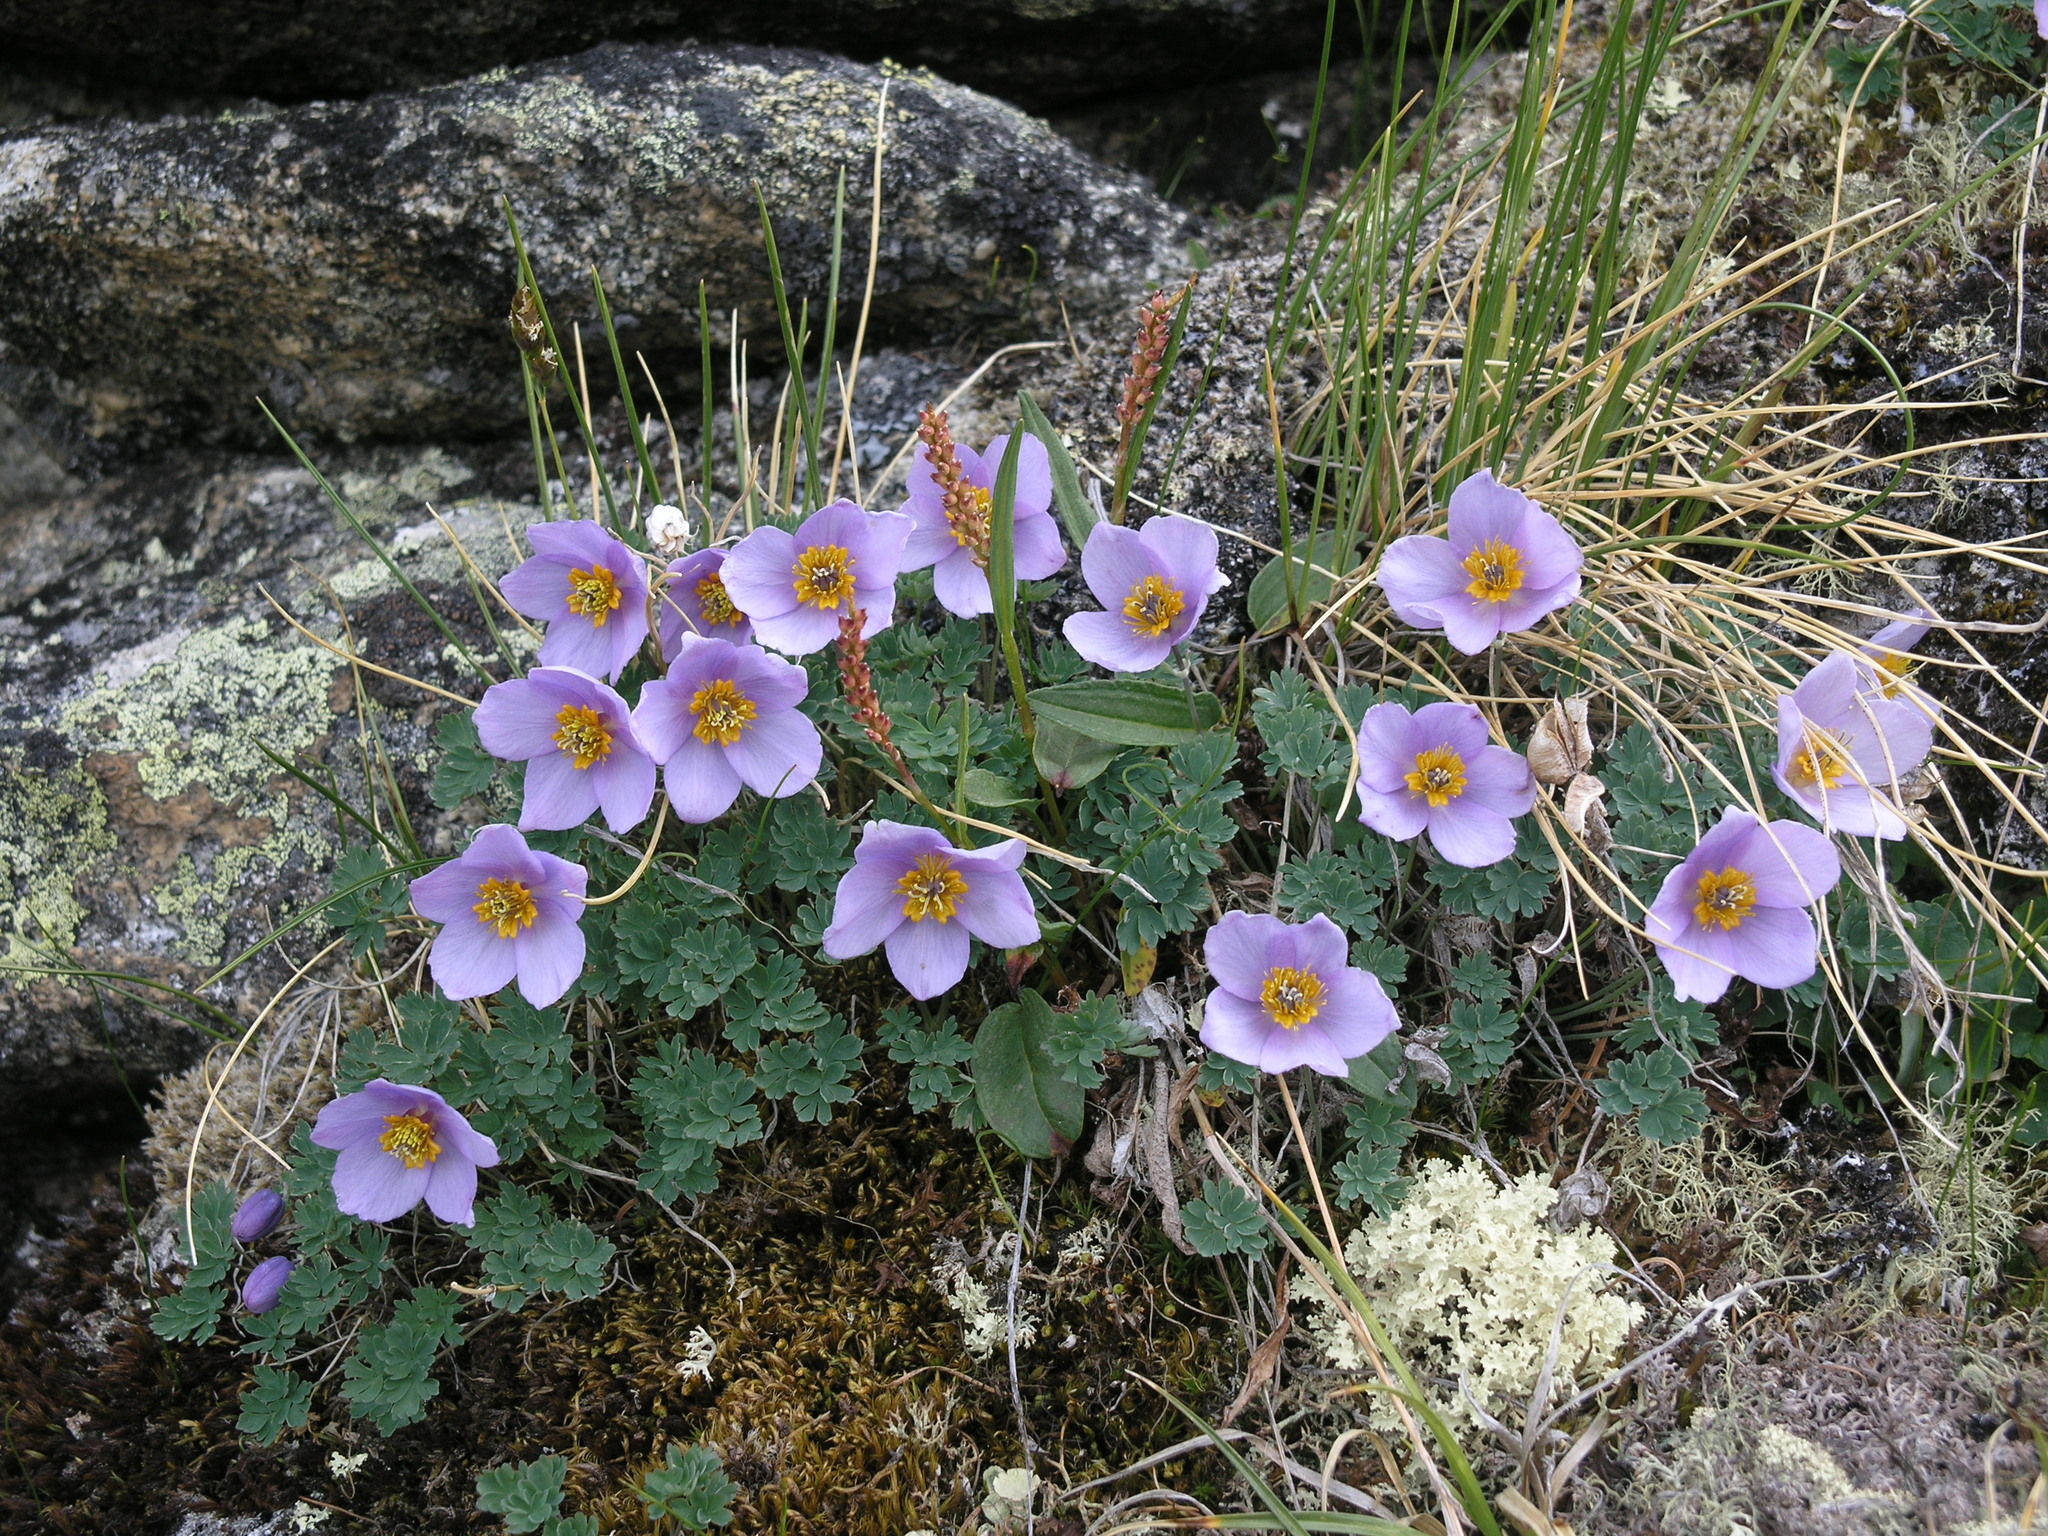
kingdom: Plantae
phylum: Tracheophyta
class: Magnoliopsida
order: Ranunculales
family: Ranunculaceae
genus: Paraquilegia
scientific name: Paraquilegia microphylla
